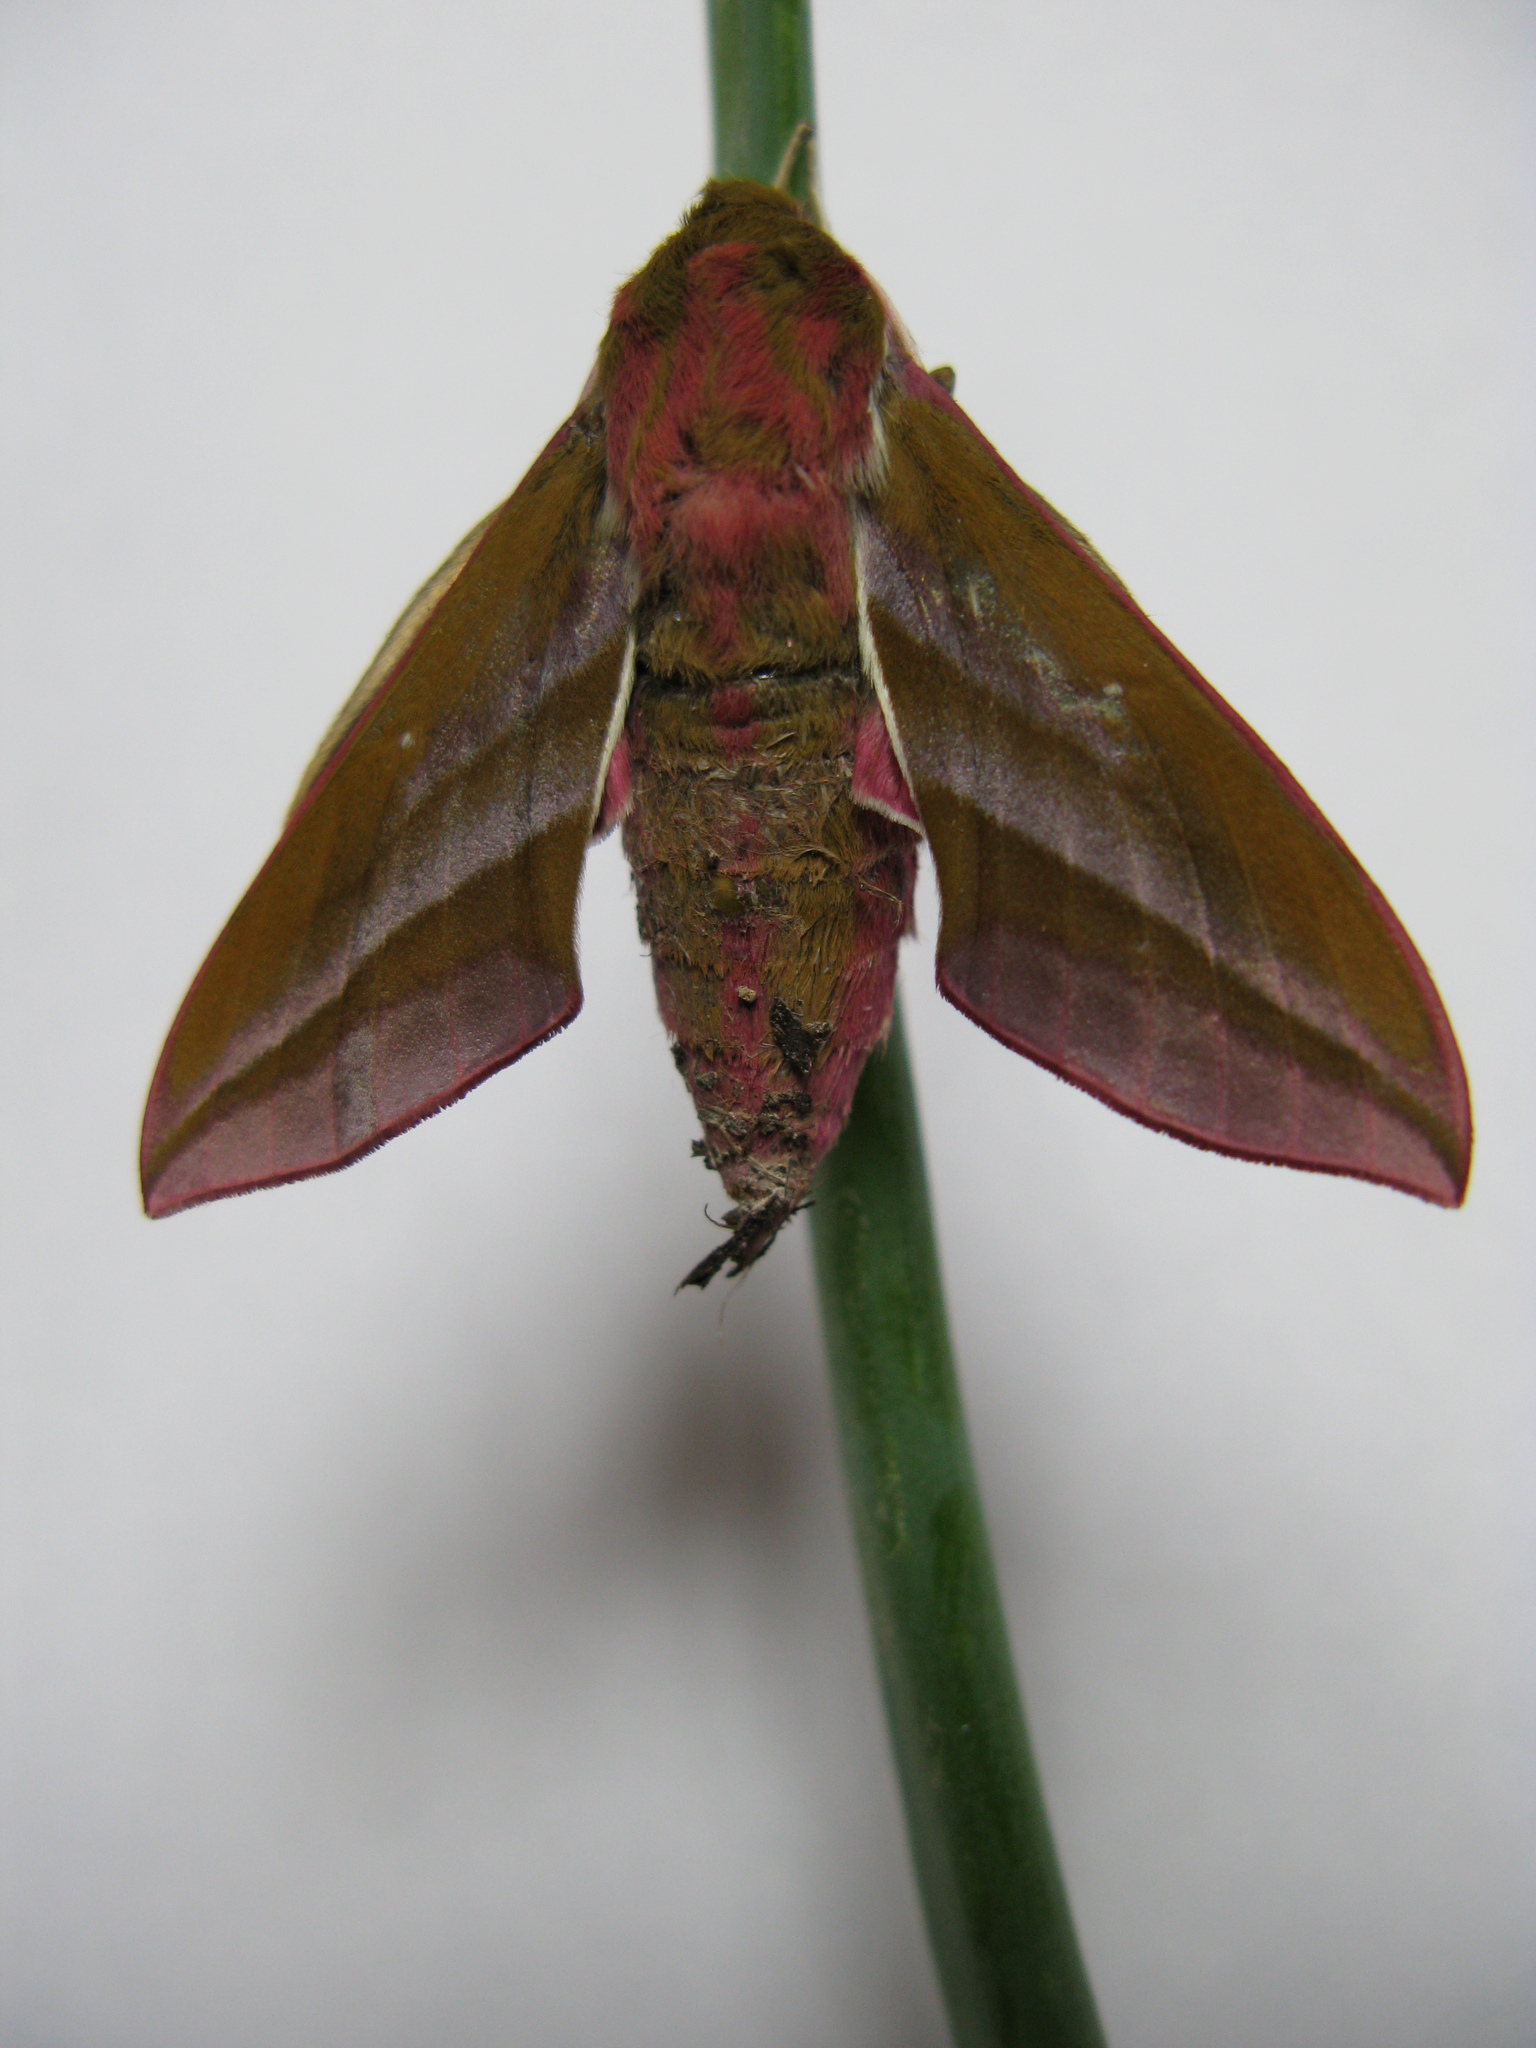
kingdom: Animalia
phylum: Arthropoda
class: Insecta
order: Lepidoptera
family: Sphingidae
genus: Deilephila
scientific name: Deilephila elpenor
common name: Elephant hawk-moth
